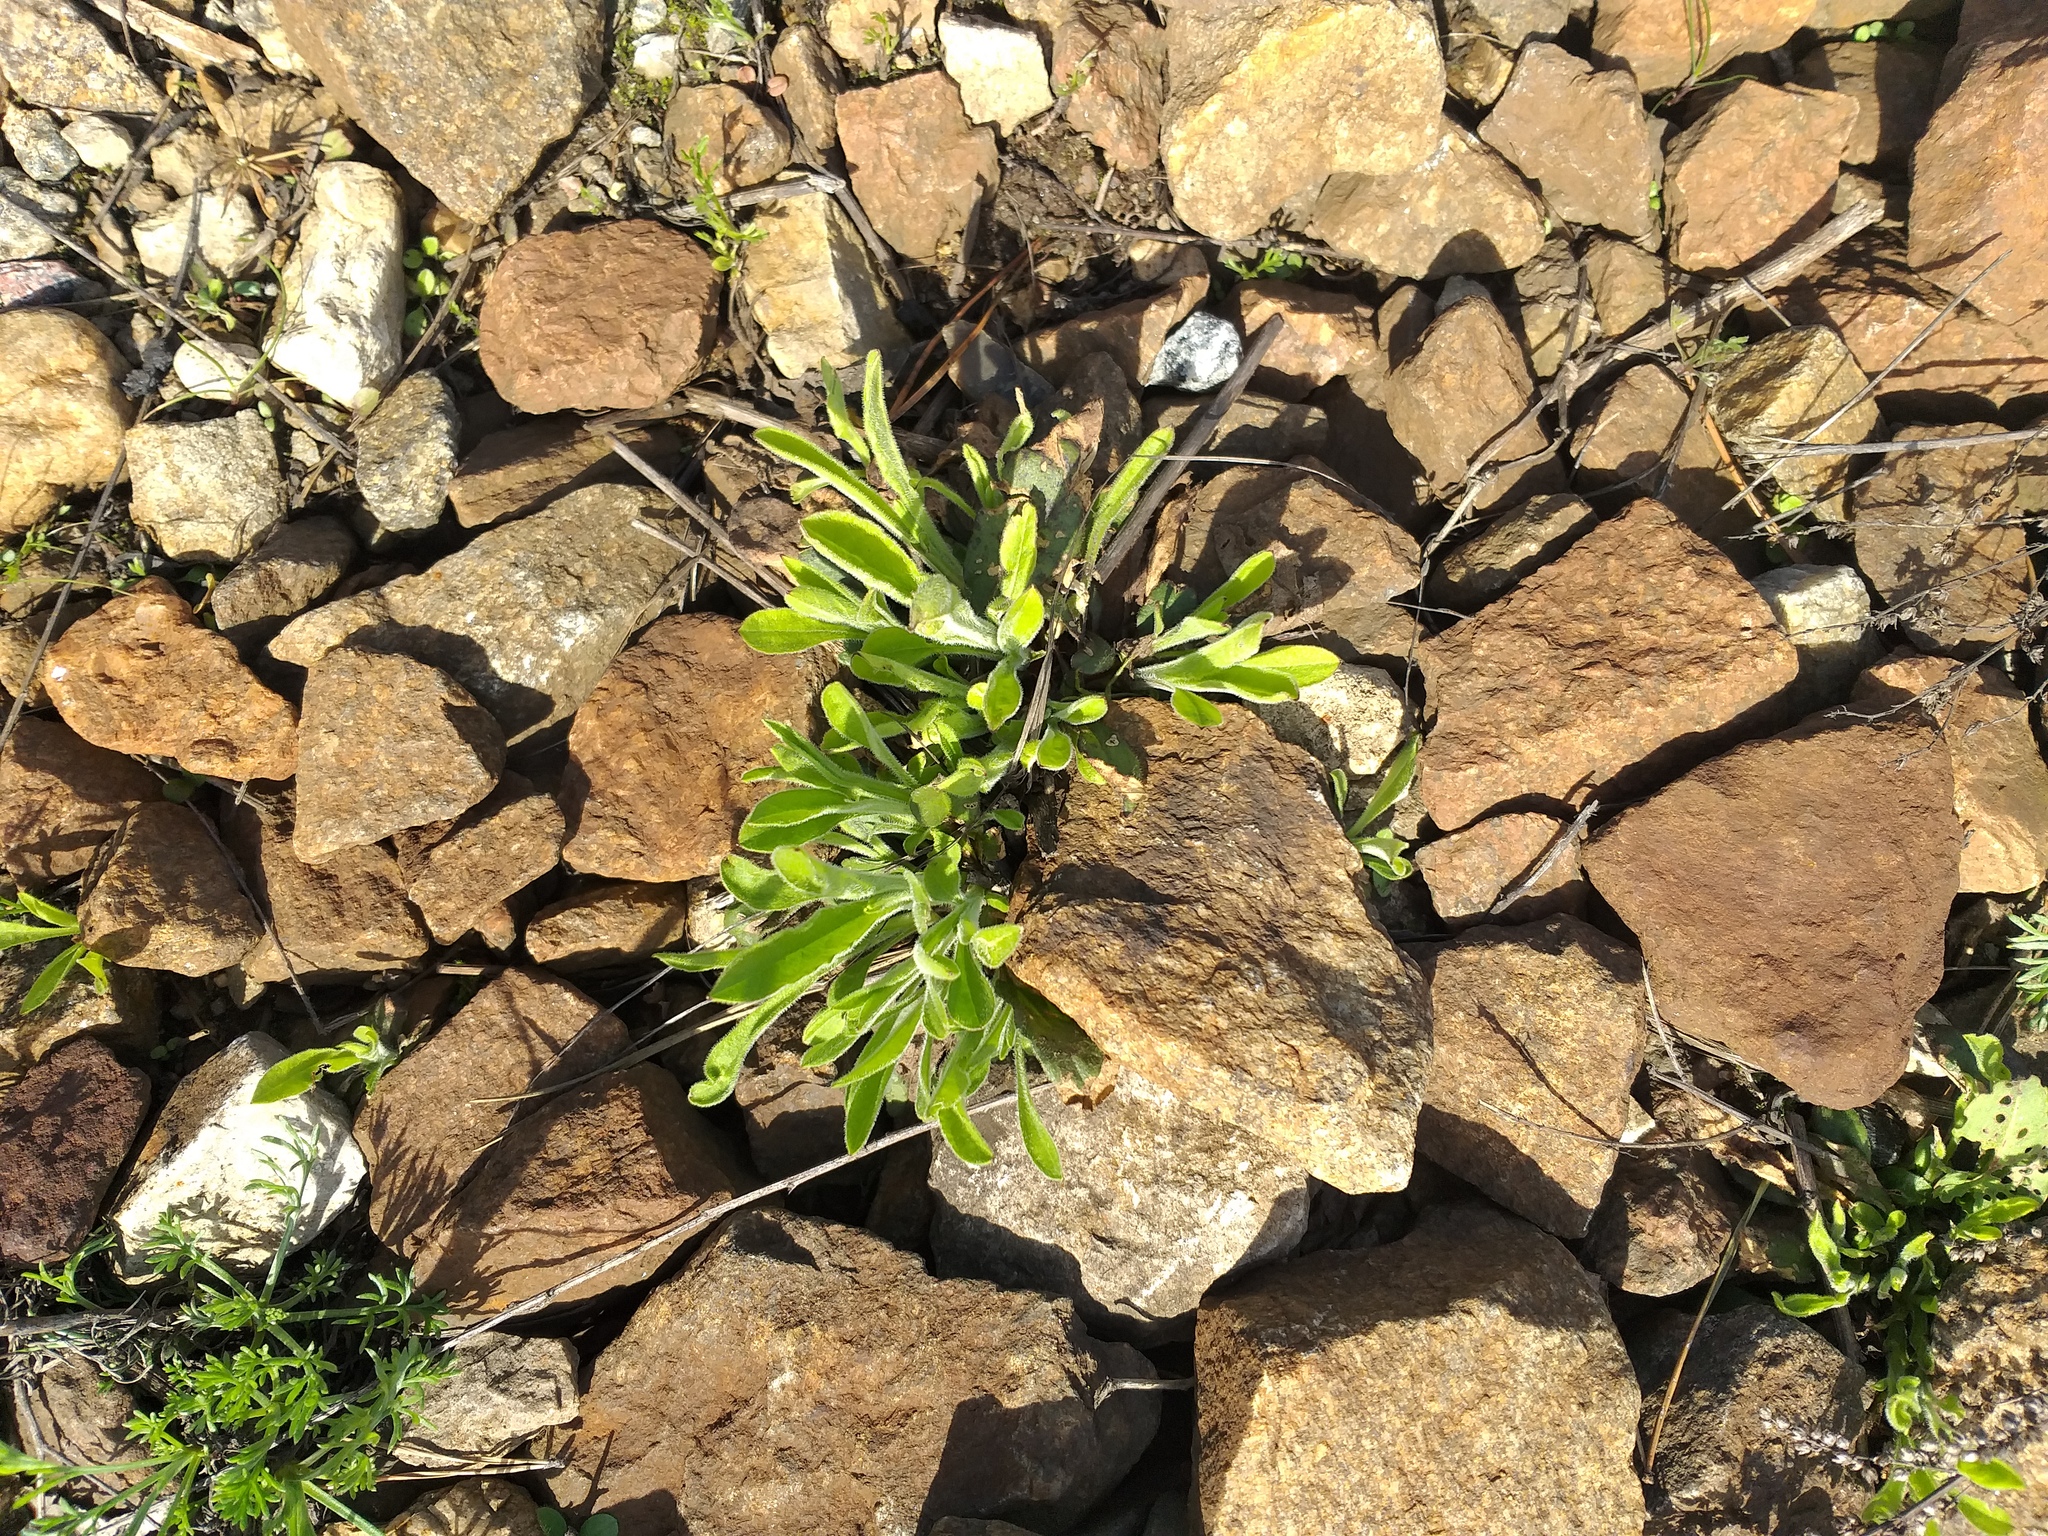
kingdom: Plantae
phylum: Tracheophyta
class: Magnoliopsida
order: Caryophyllales
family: Caryophyllaceae
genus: Silene
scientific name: Silene nutans
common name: Nottingham catchfly
